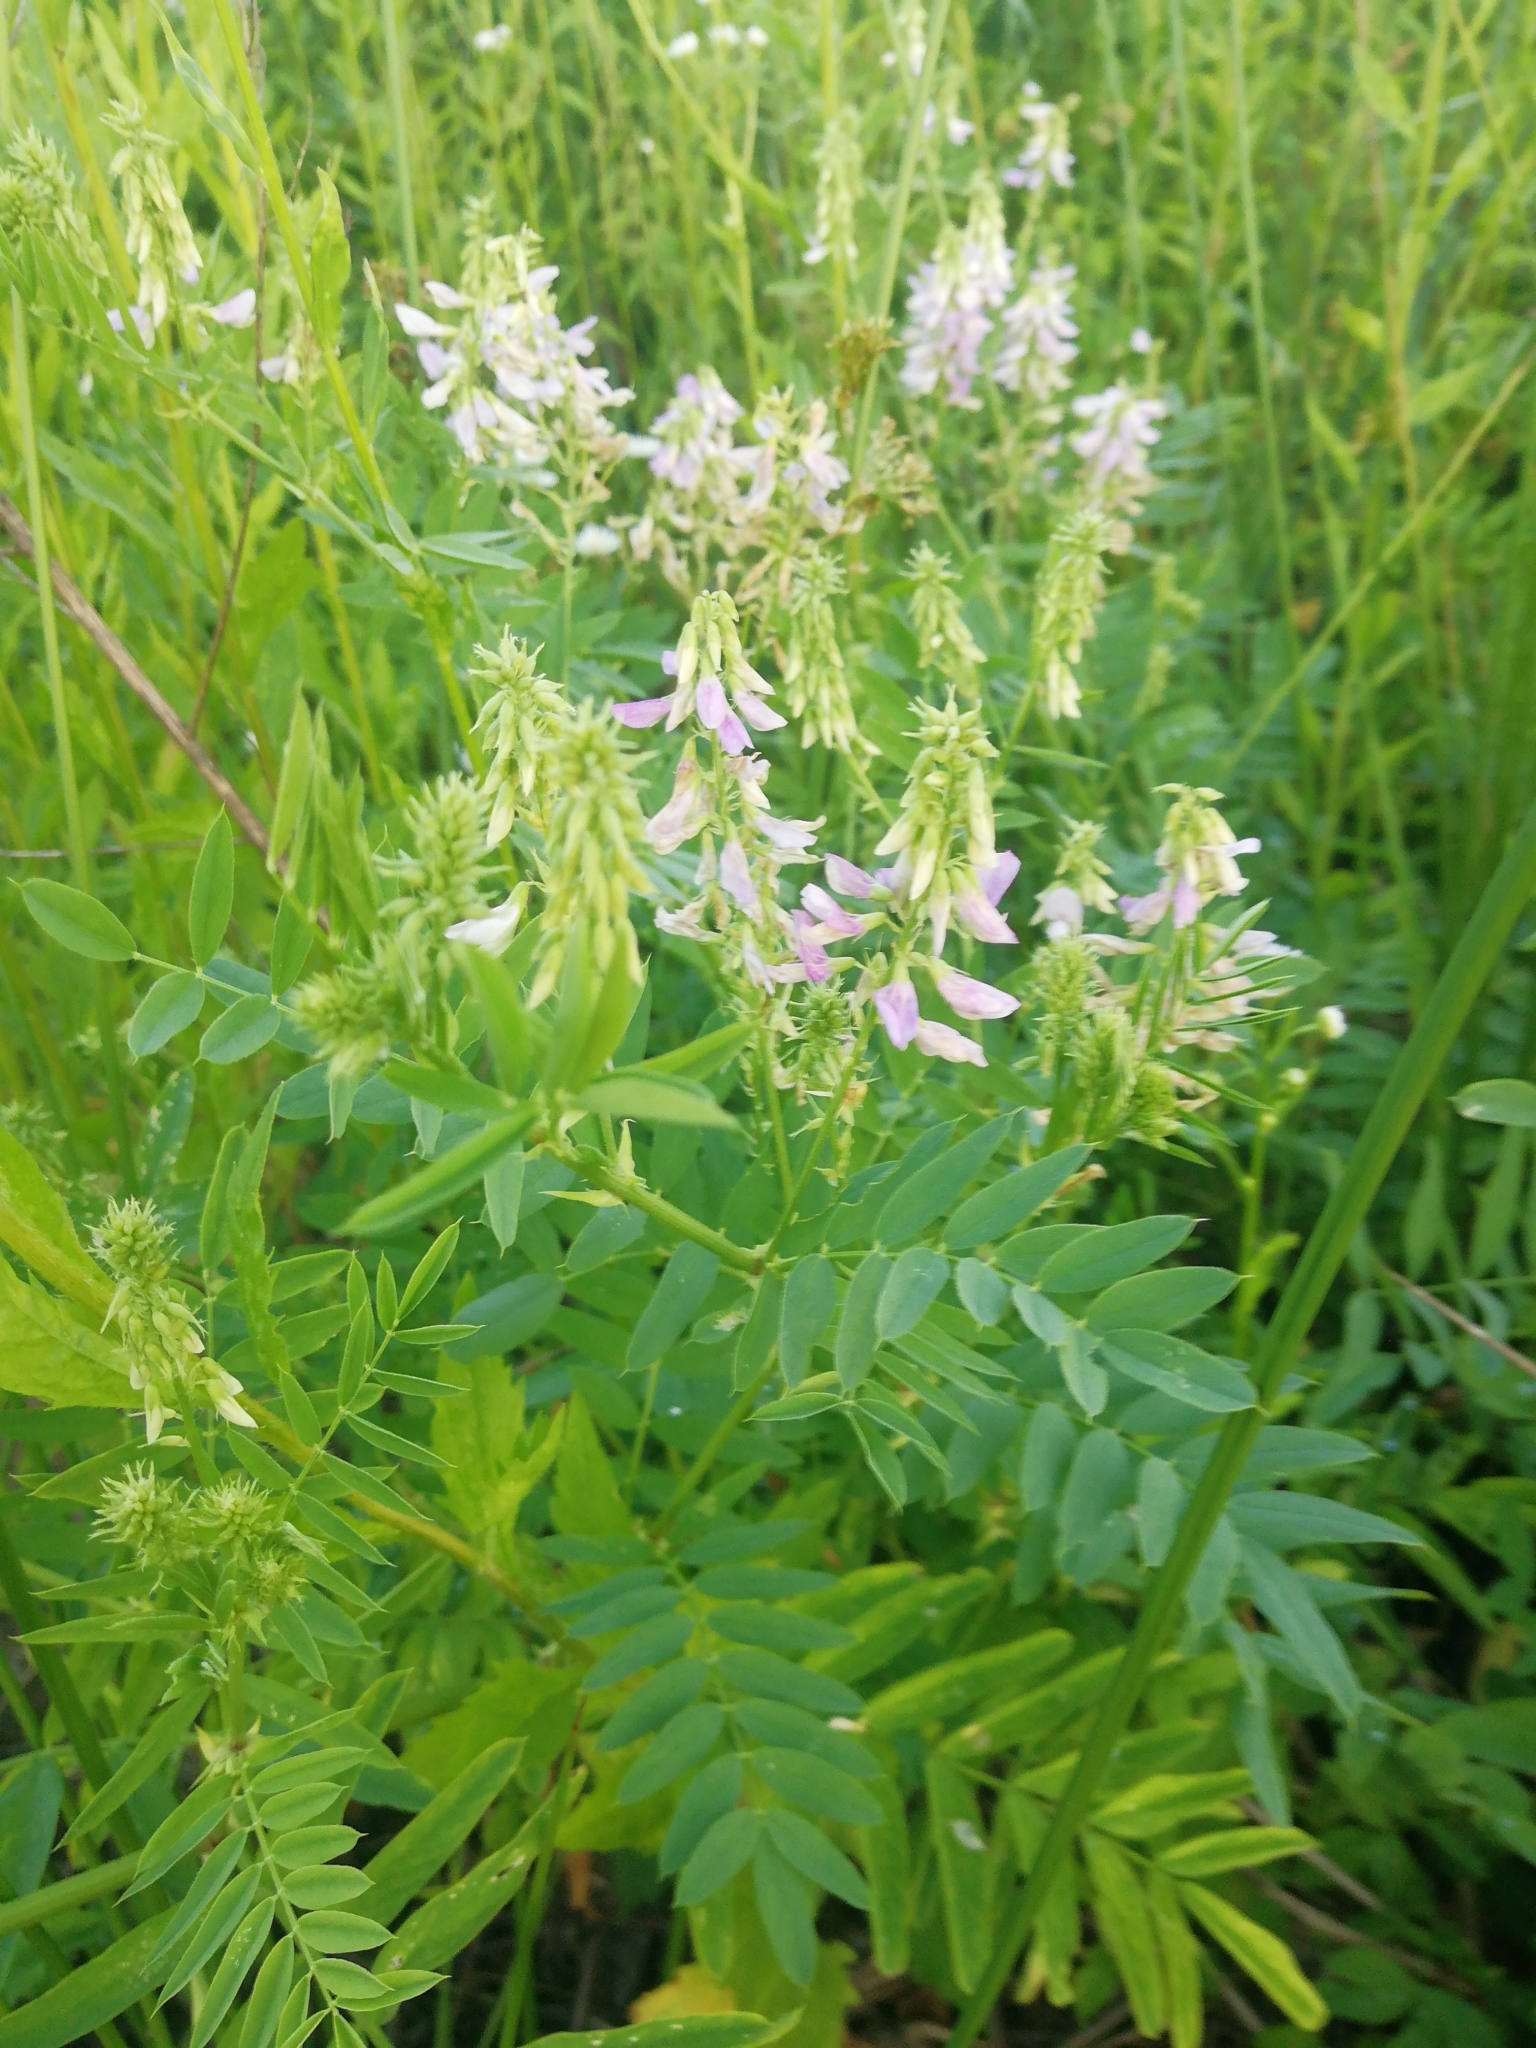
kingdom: Plantae
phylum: Tracheophyta
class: Magnoliopsida
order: Fabales
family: Fabaceae
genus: Galega
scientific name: Galega officinalis
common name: Goat's-rue
